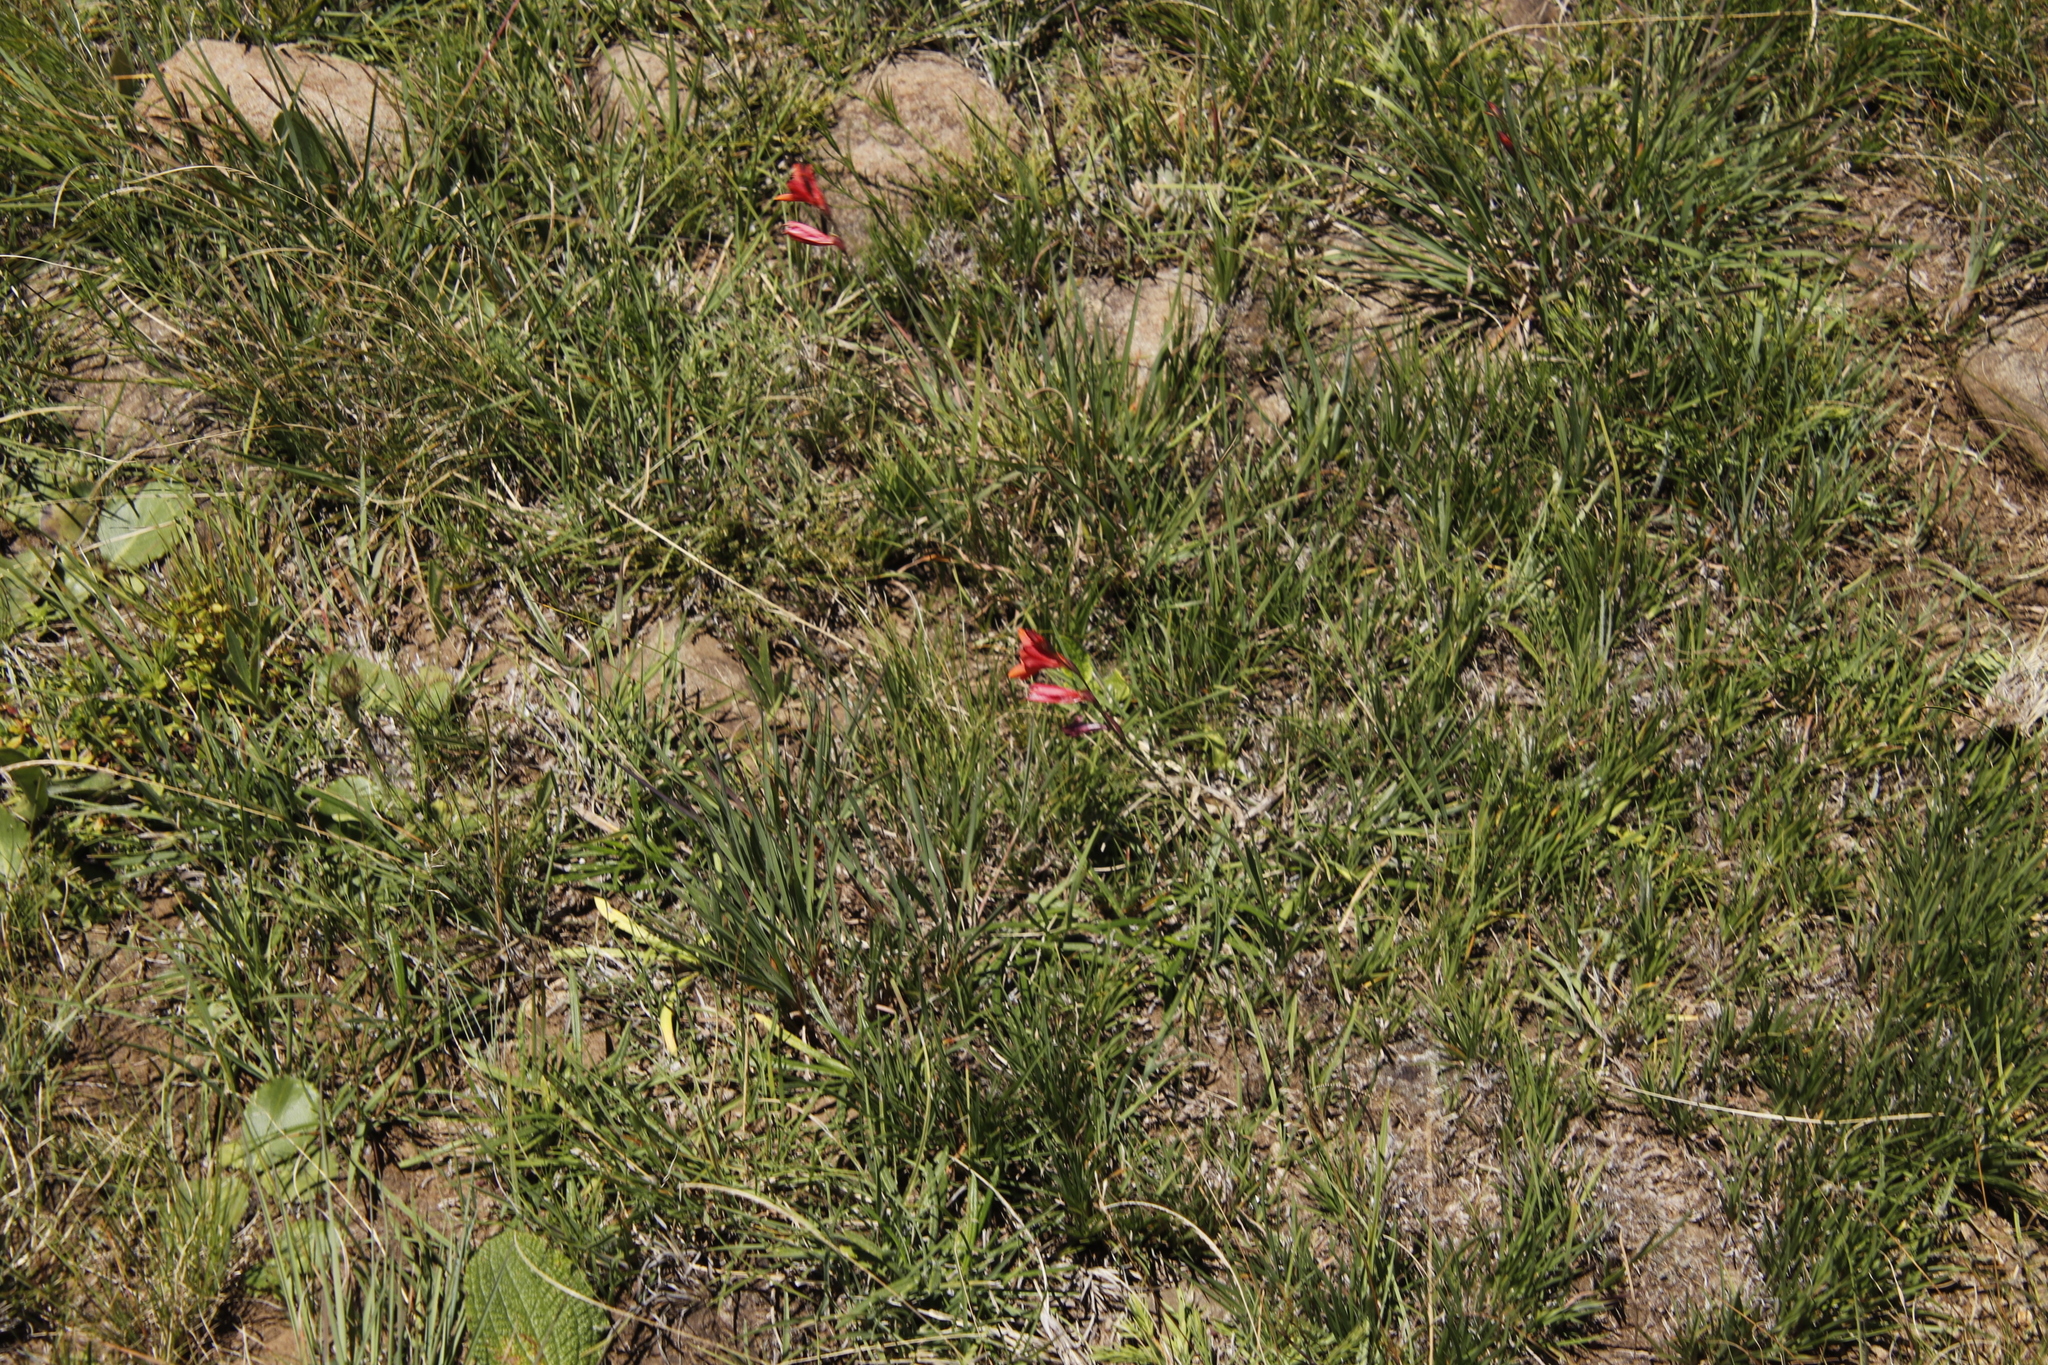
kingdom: Plantae
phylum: Tracheophyta
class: Liliopsida
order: Asparagales
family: Iridaceae
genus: Tritonia
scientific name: Tritonia drakensbergensis
